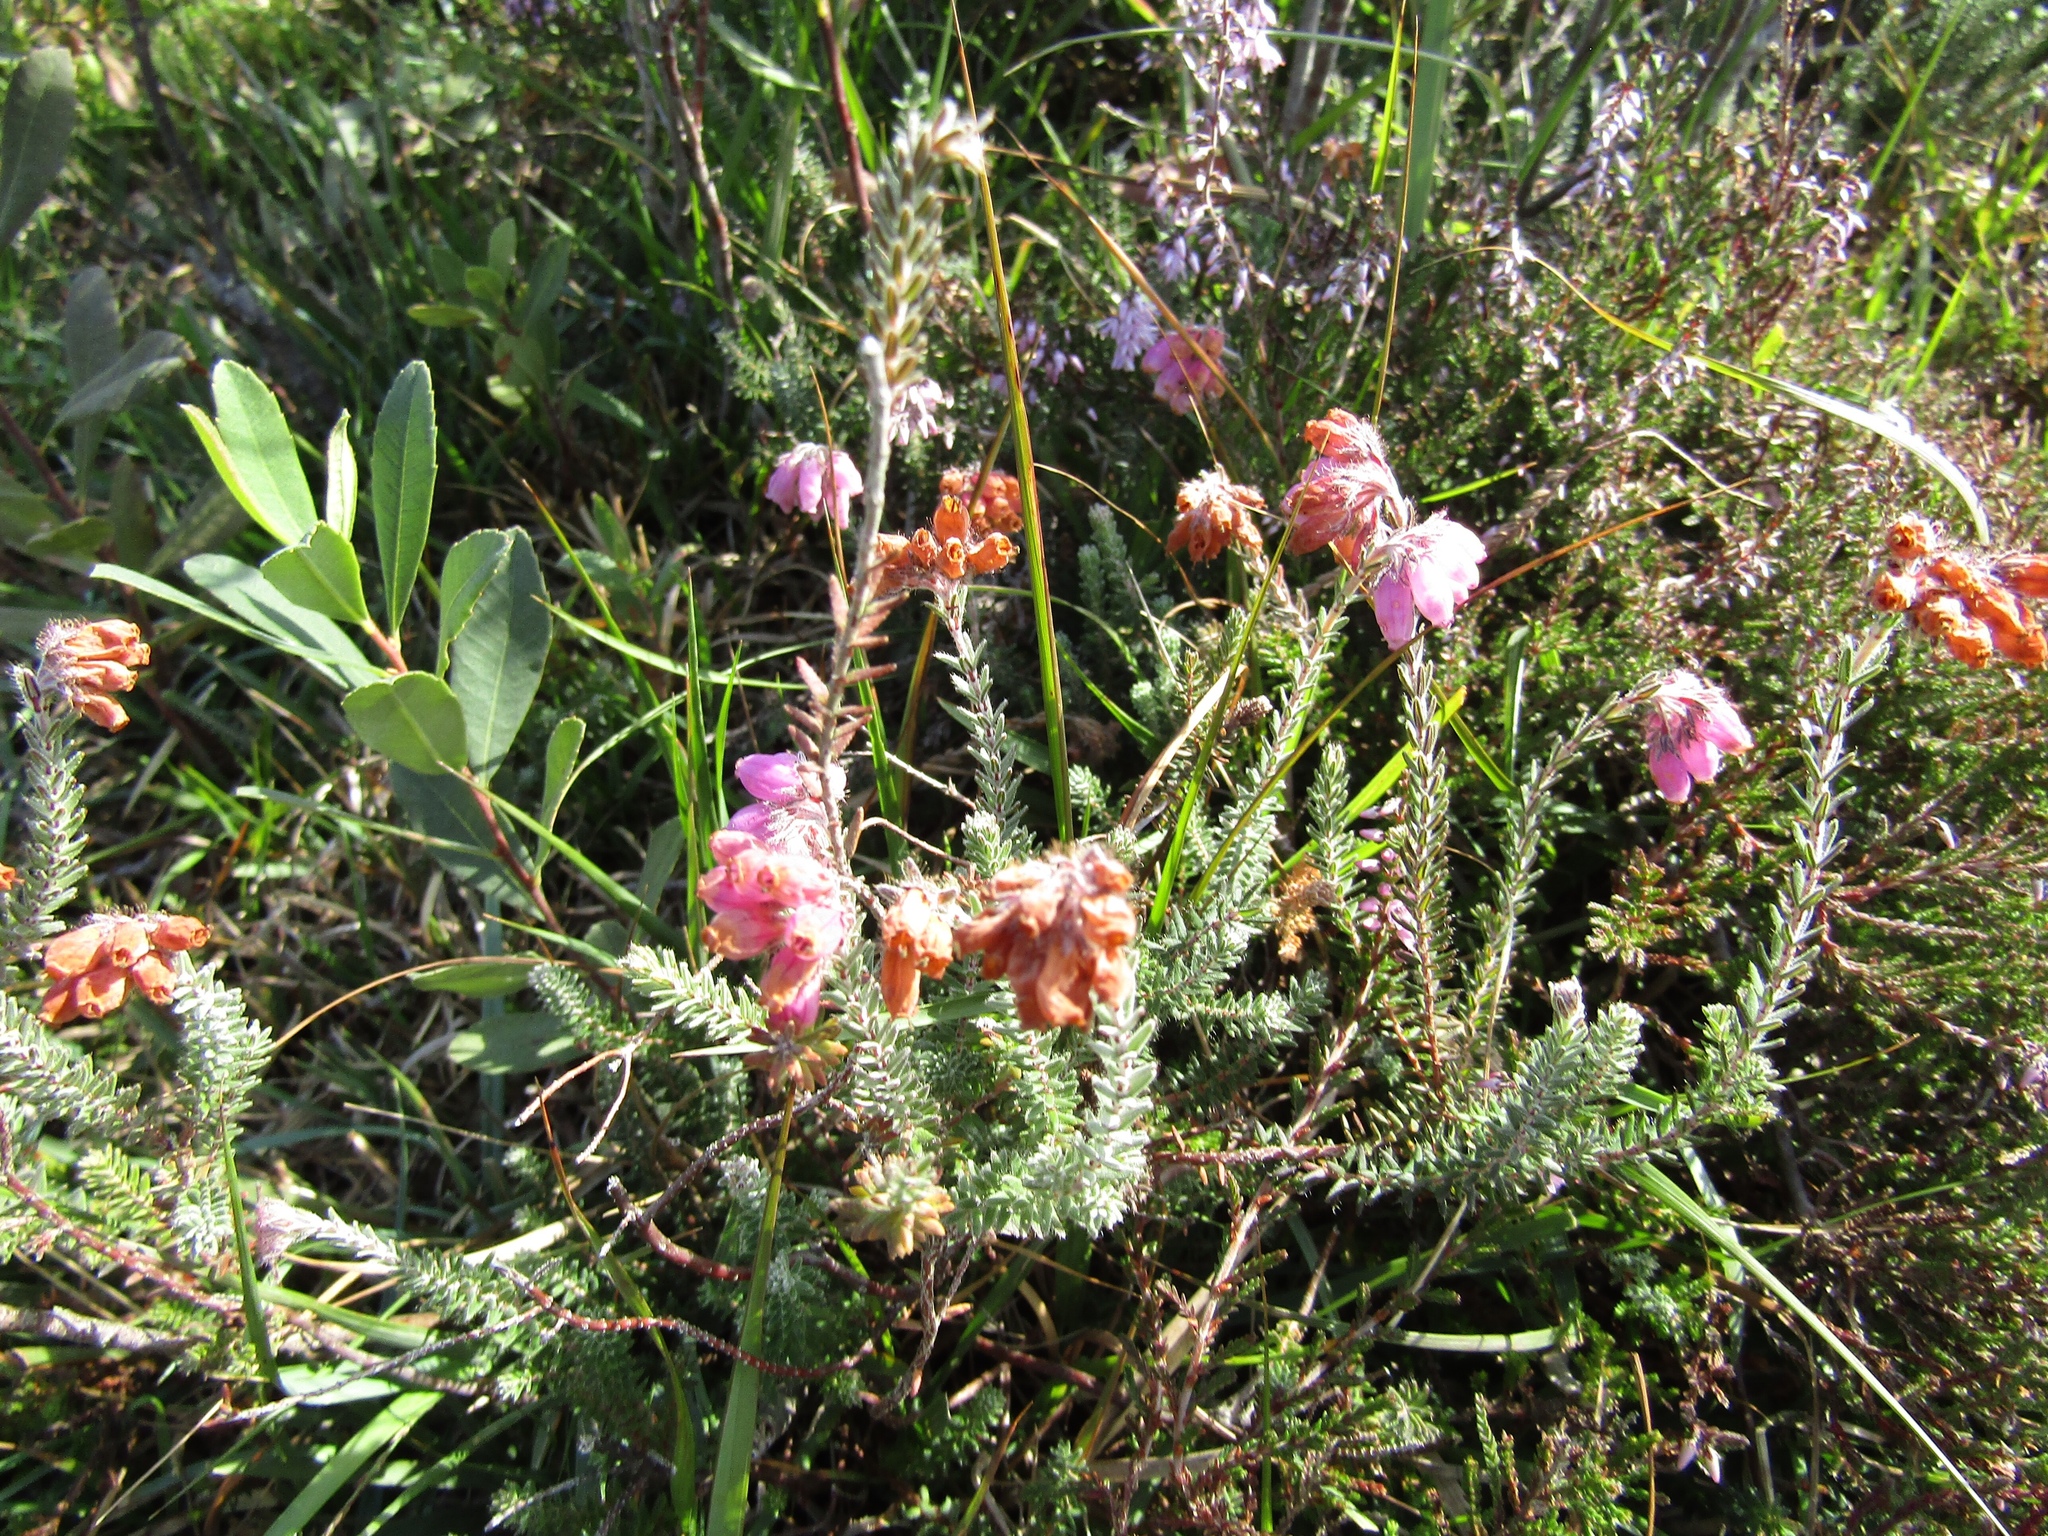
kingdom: Plantae
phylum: Tracheophyta
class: Magnoliopsida
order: Ericales
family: Ericaceae
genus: Erica
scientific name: Erica tetralix
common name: Cross-leaved heath
